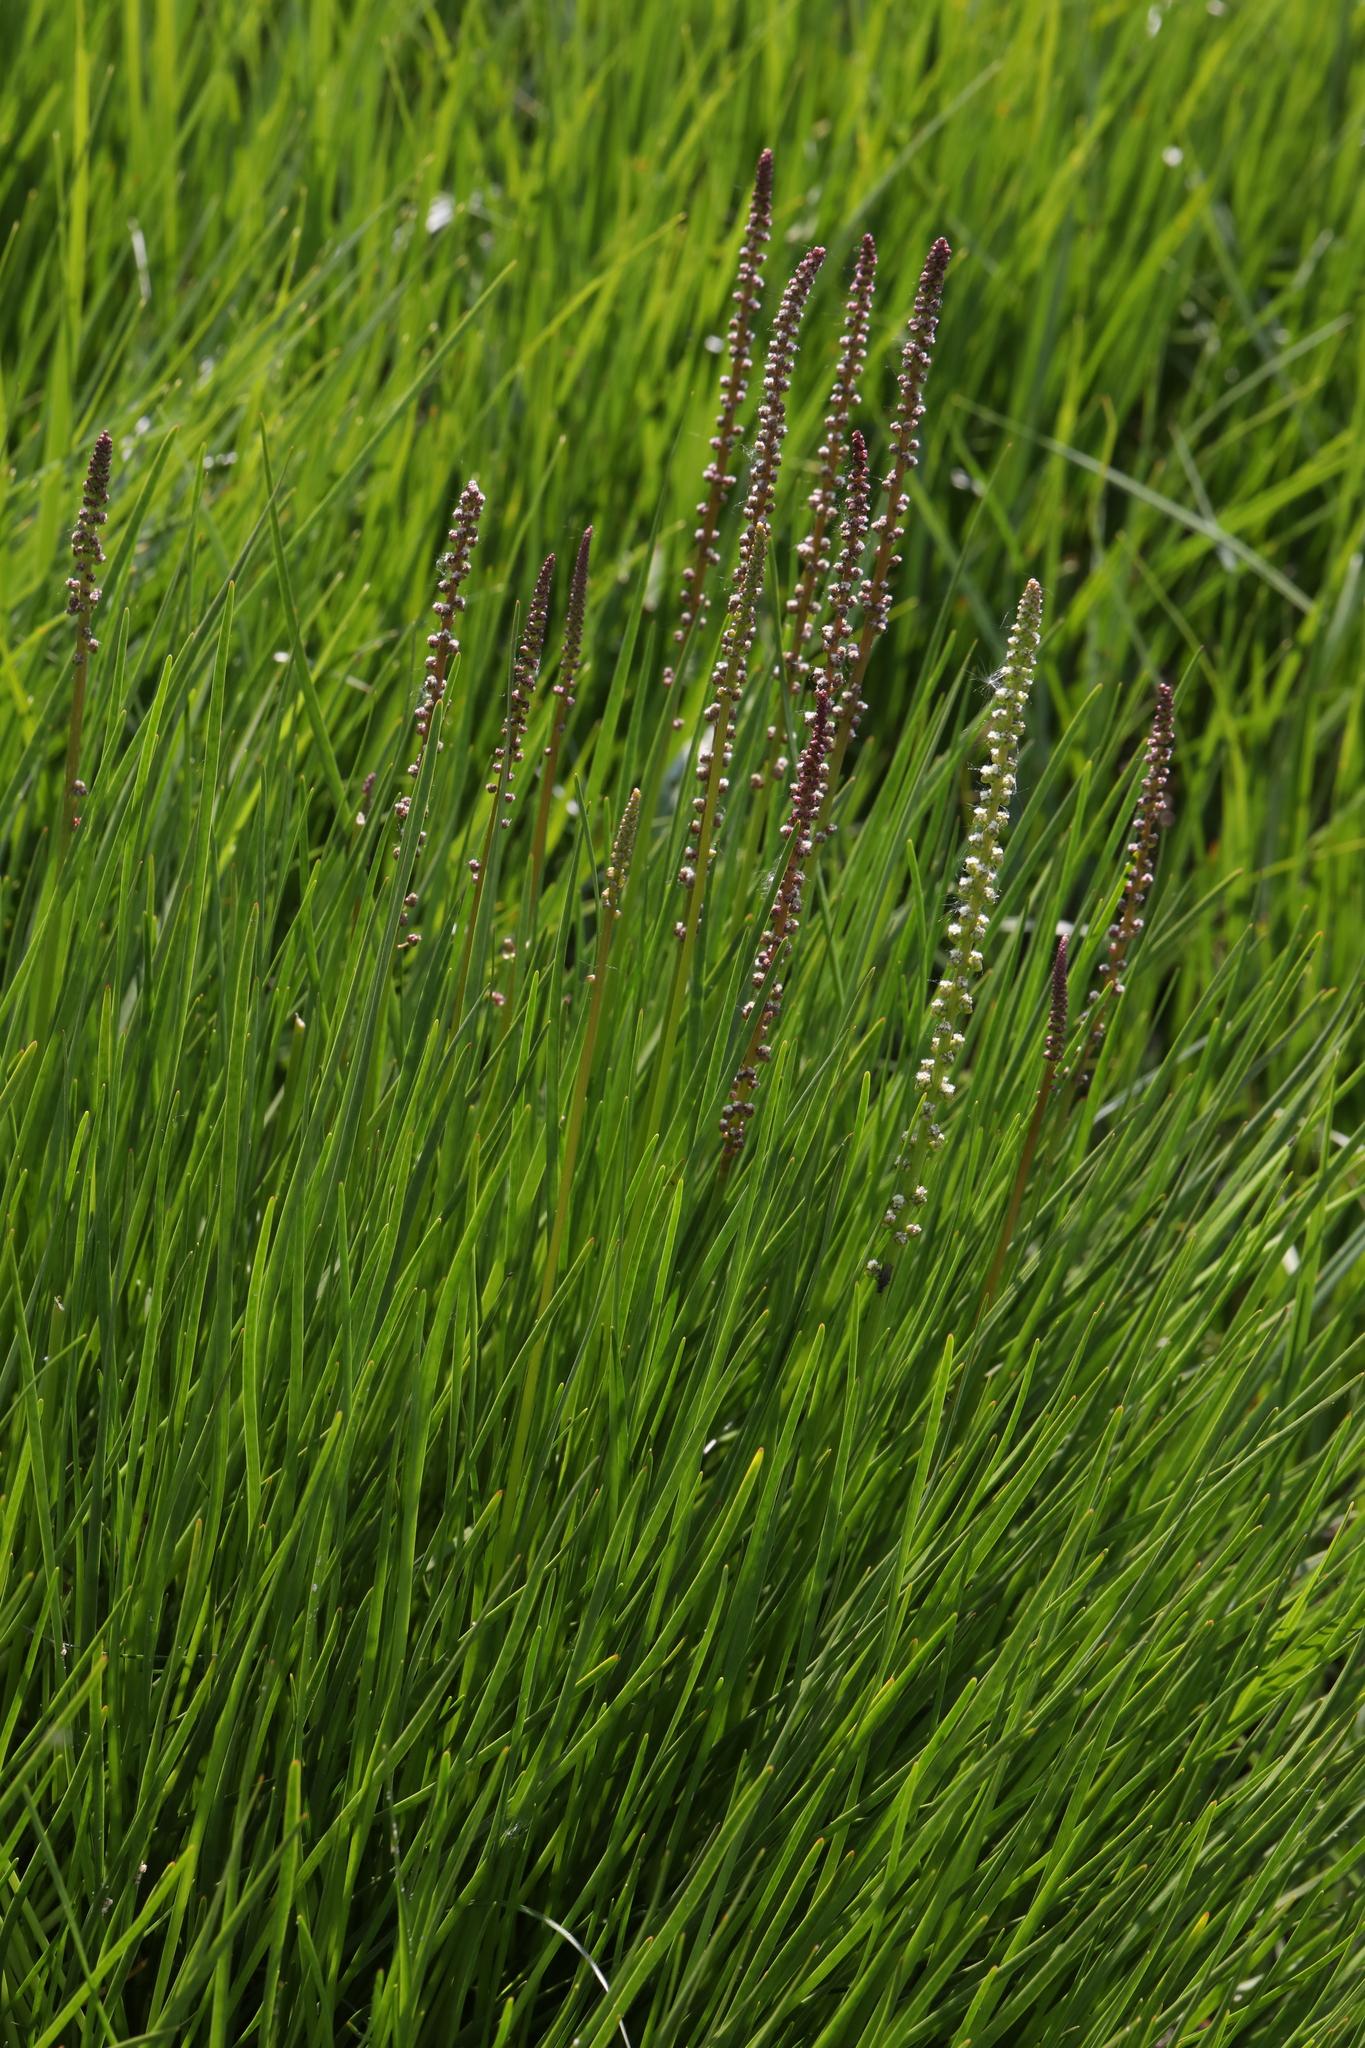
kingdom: Plantae
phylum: Tracheophyta
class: Liliopsida
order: Alismatales
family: Juncaginaceae
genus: Triglochin
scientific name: Triglochin maritima
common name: Sea arrowgrass
